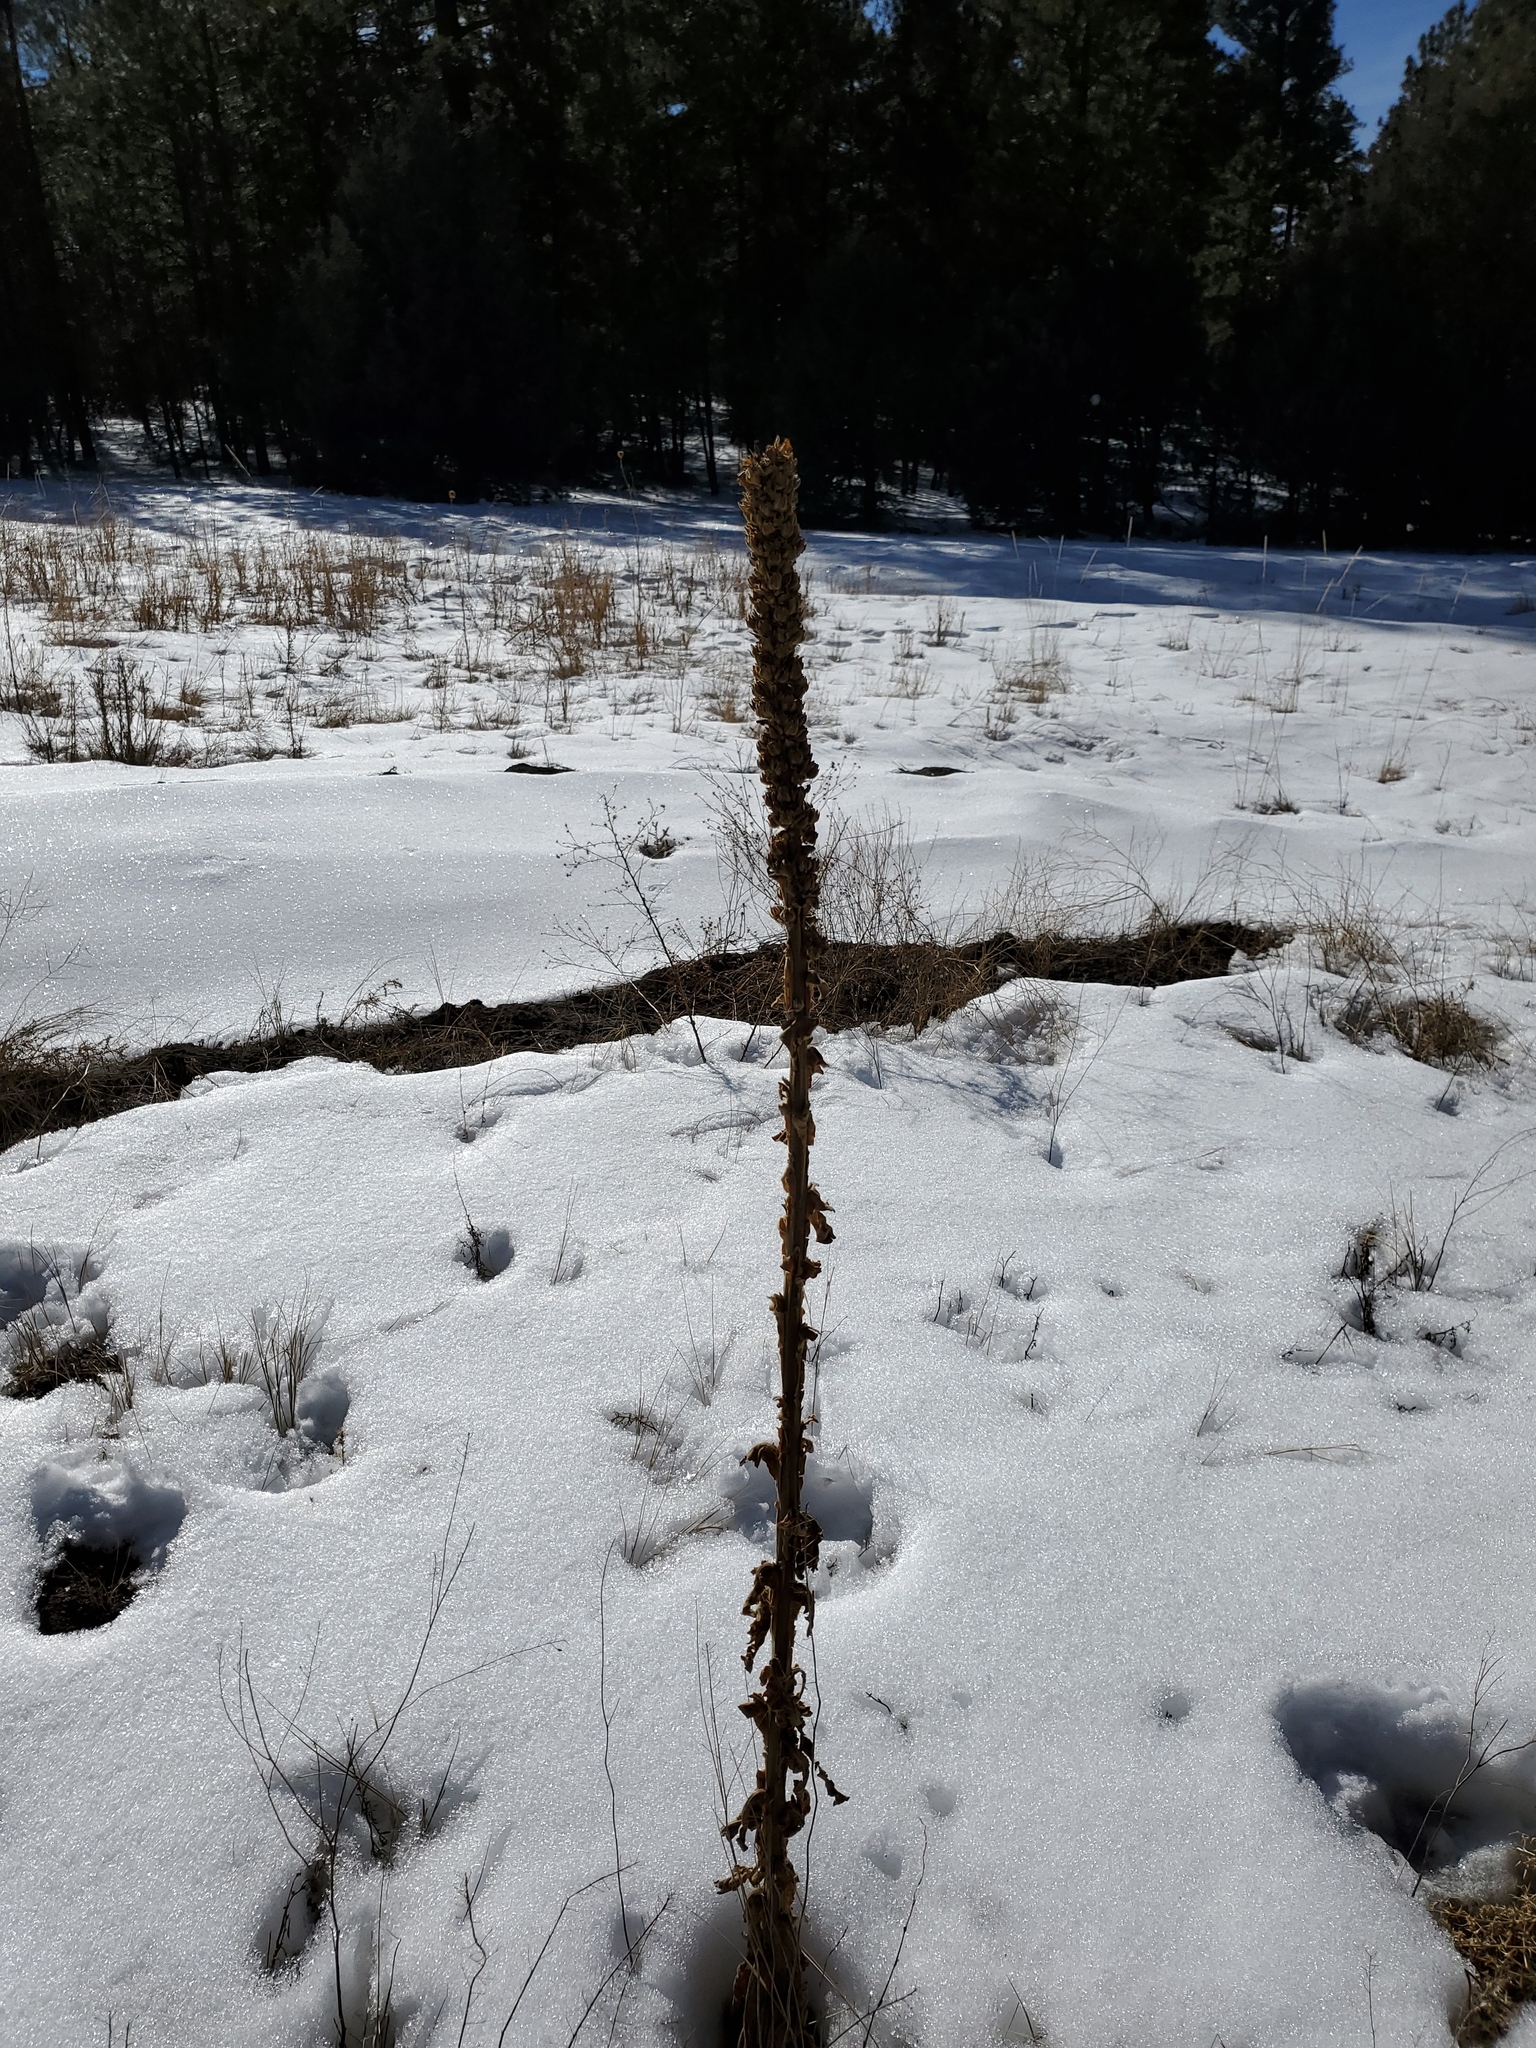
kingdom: Plantae
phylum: Tracheophyta
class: Magnoliopsida
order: Lamiales
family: Scrophulariaceae
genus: Verbascum
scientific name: Verbascum thapsus
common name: Common mullein
